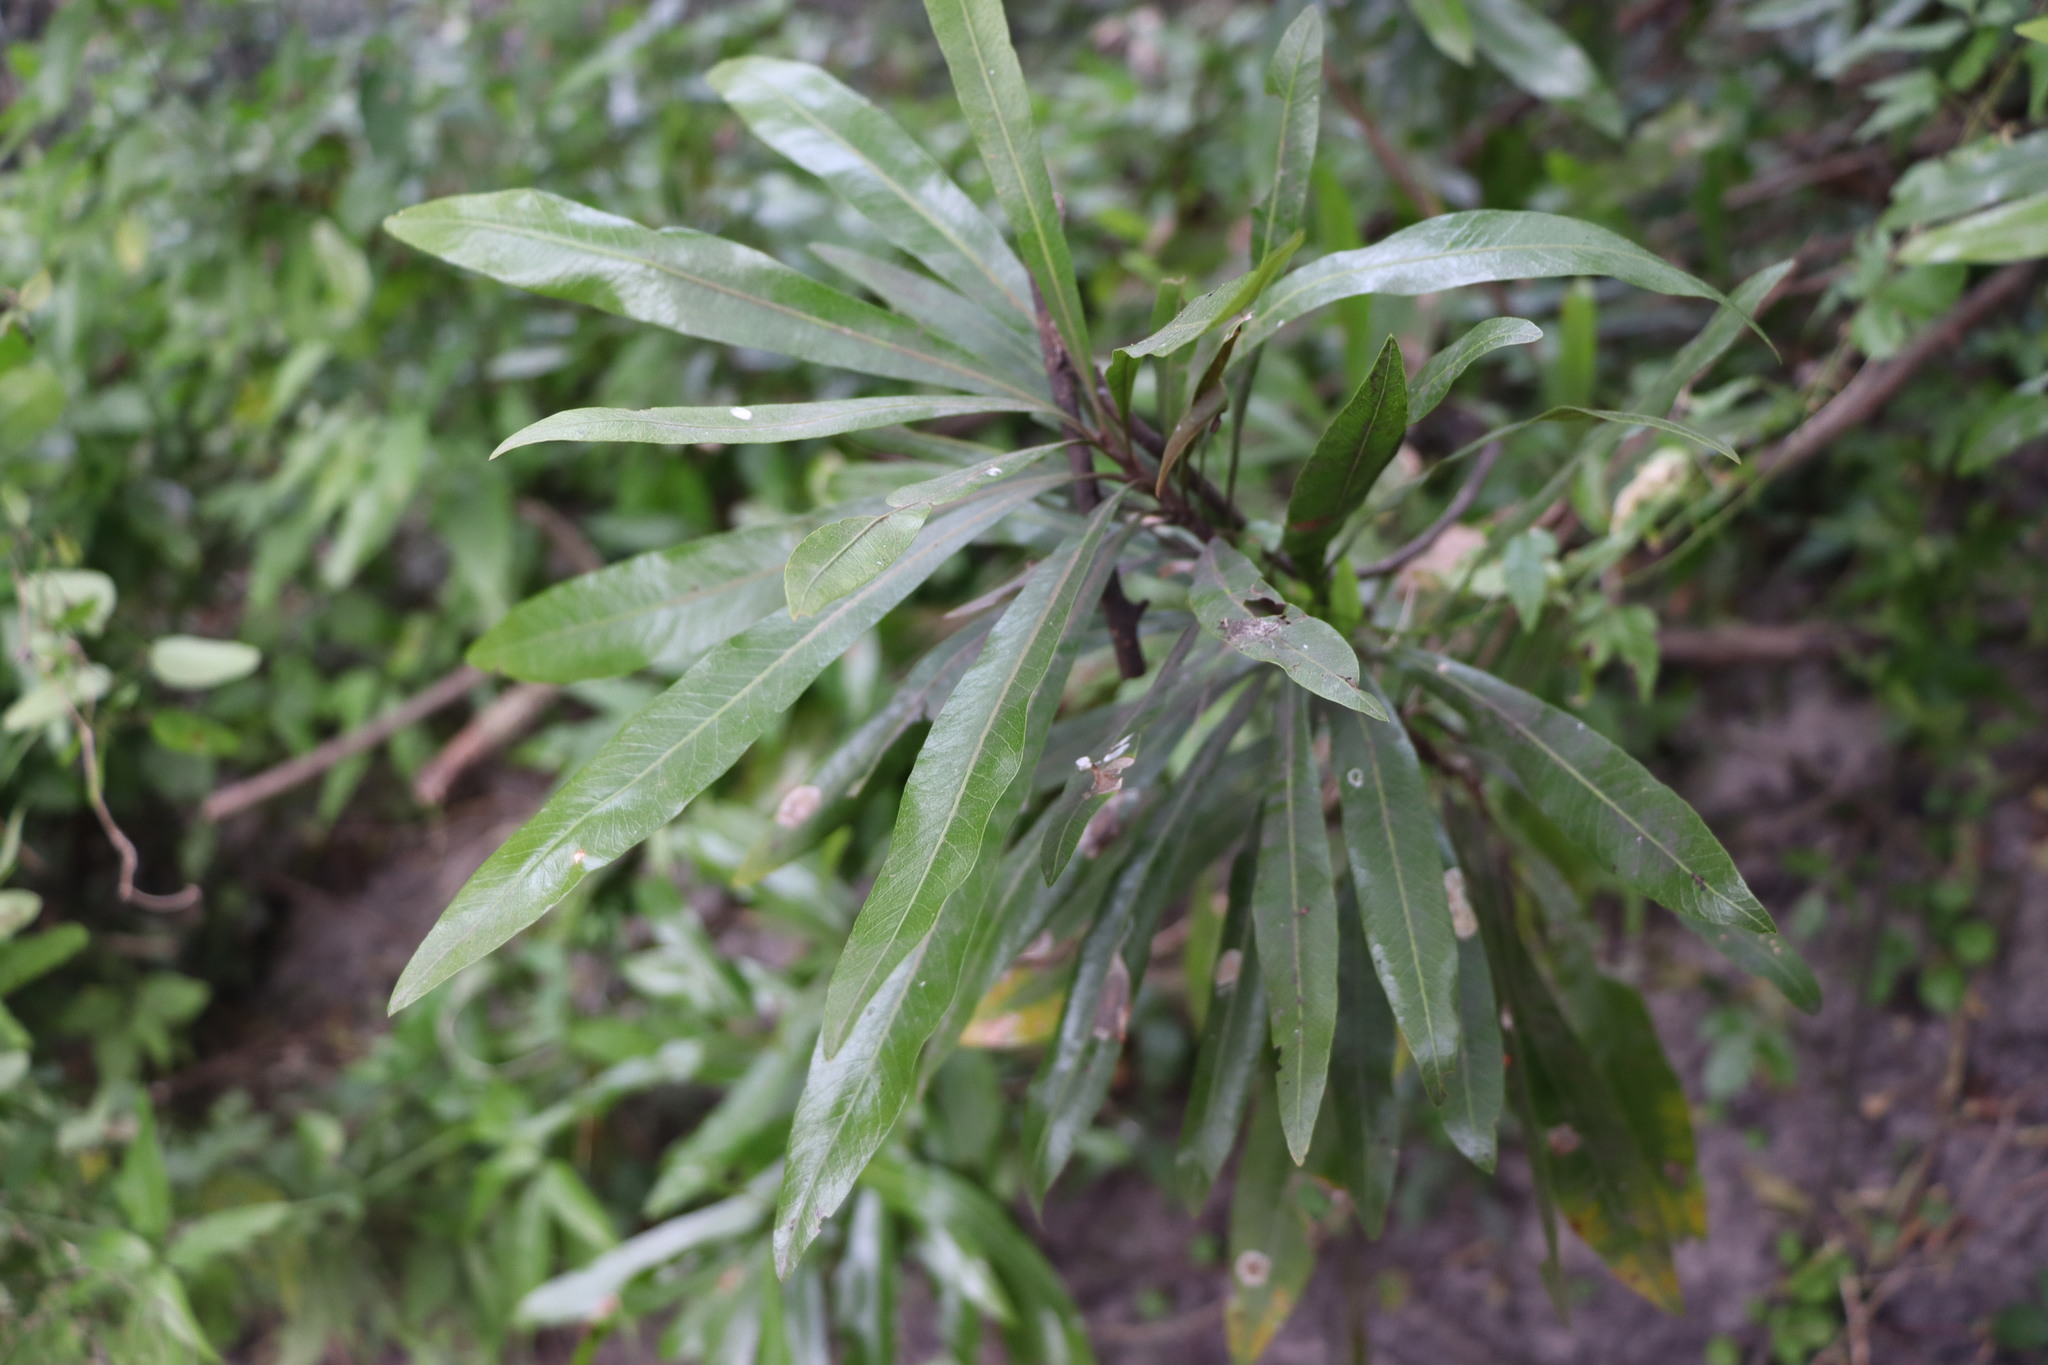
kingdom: Plantae
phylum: Tracheophyta
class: Magnoliopsida
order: Ericales
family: Sapotaceae
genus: Labatia
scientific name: Labatia salicifolia
